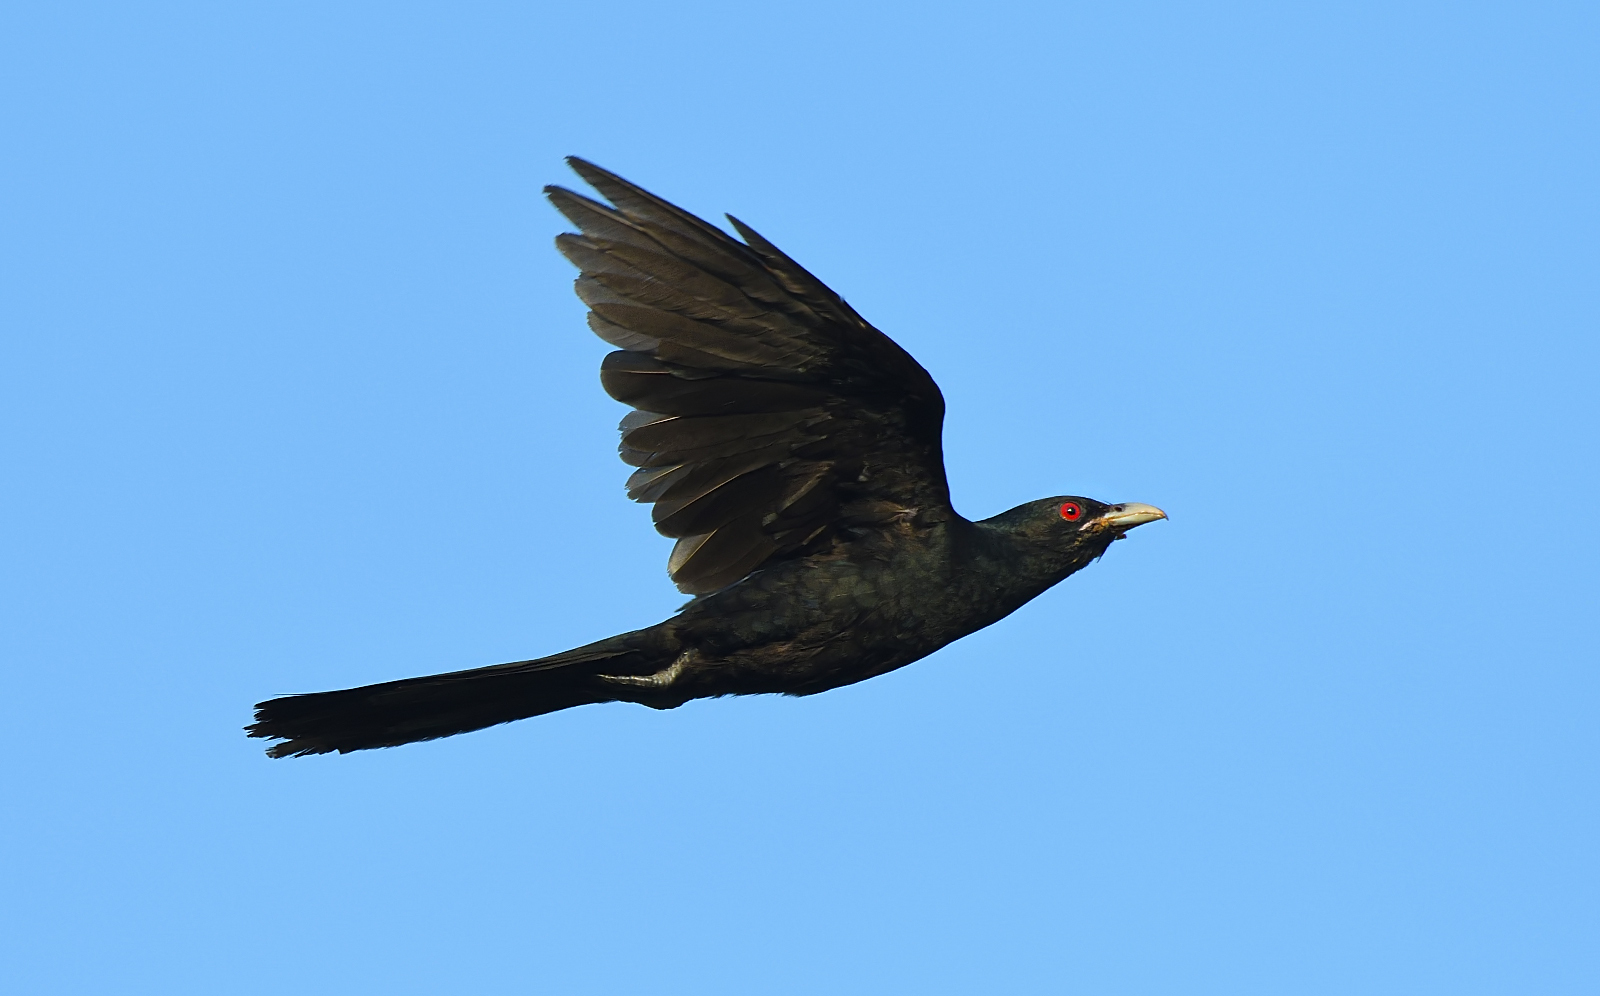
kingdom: Animalia
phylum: Chordata
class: Aves
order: Cuculiformes
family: Cuculidae
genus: Eudynamys
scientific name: Eudynamys scolopaceus
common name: Asian koel
